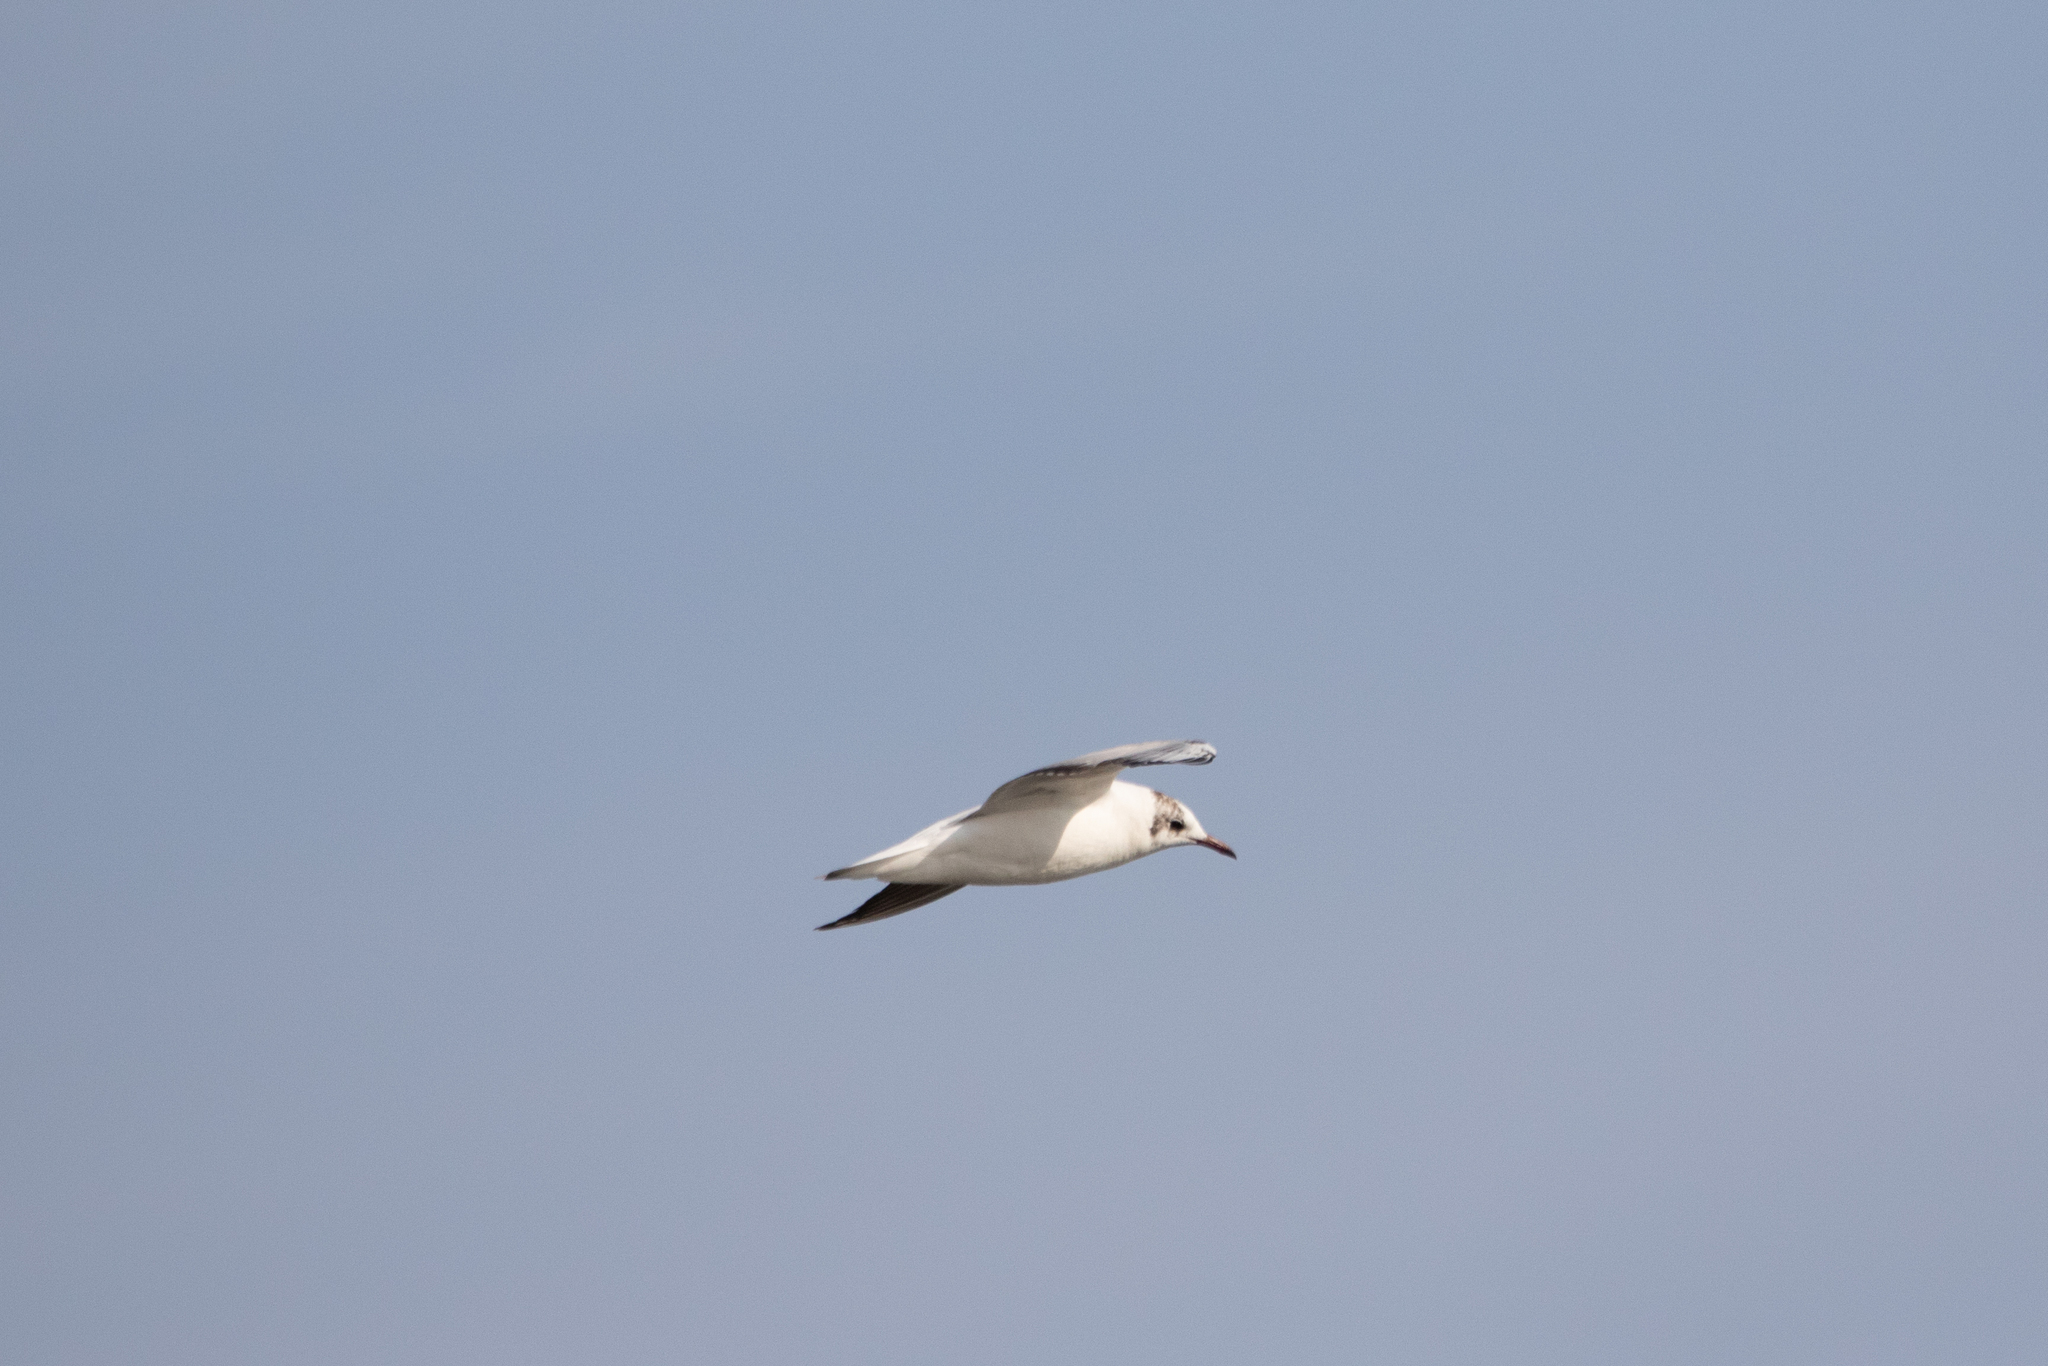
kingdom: Animalia
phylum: Chordata
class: Aves
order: Charadriiformes
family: Laridae
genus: Chroicocephalus
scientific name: Chroicocephalus ridibundus
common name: Black-headed gull
